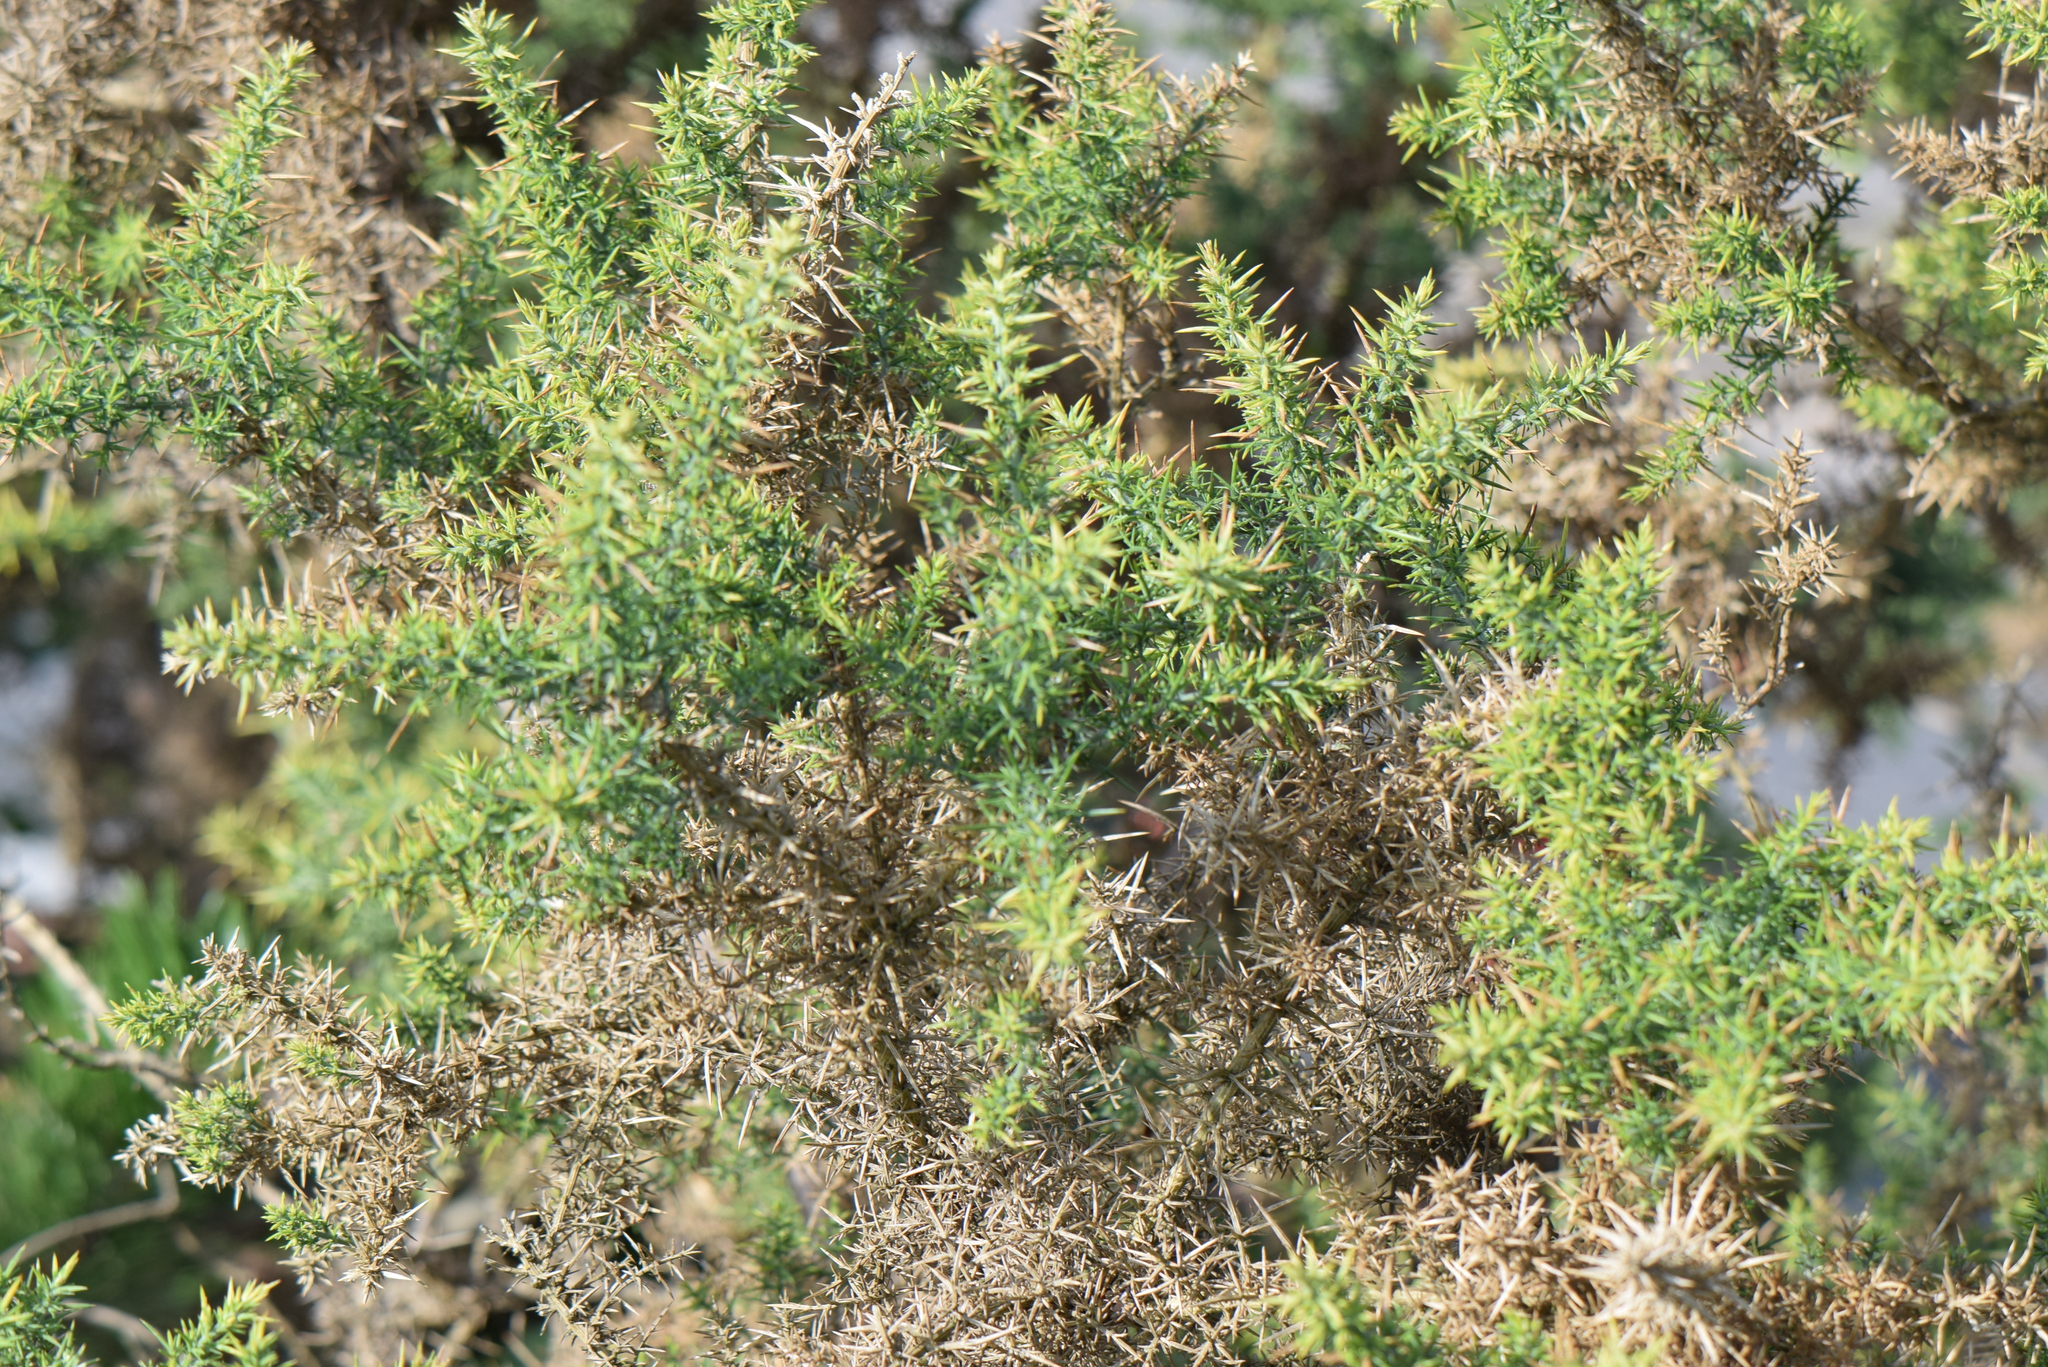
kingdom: Plantae
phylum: Tracheophyta
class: Magnoliopsida
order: Fabales
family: Fabaceae
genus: Ulex
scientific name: Ulex europaeus
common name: Common gorse
